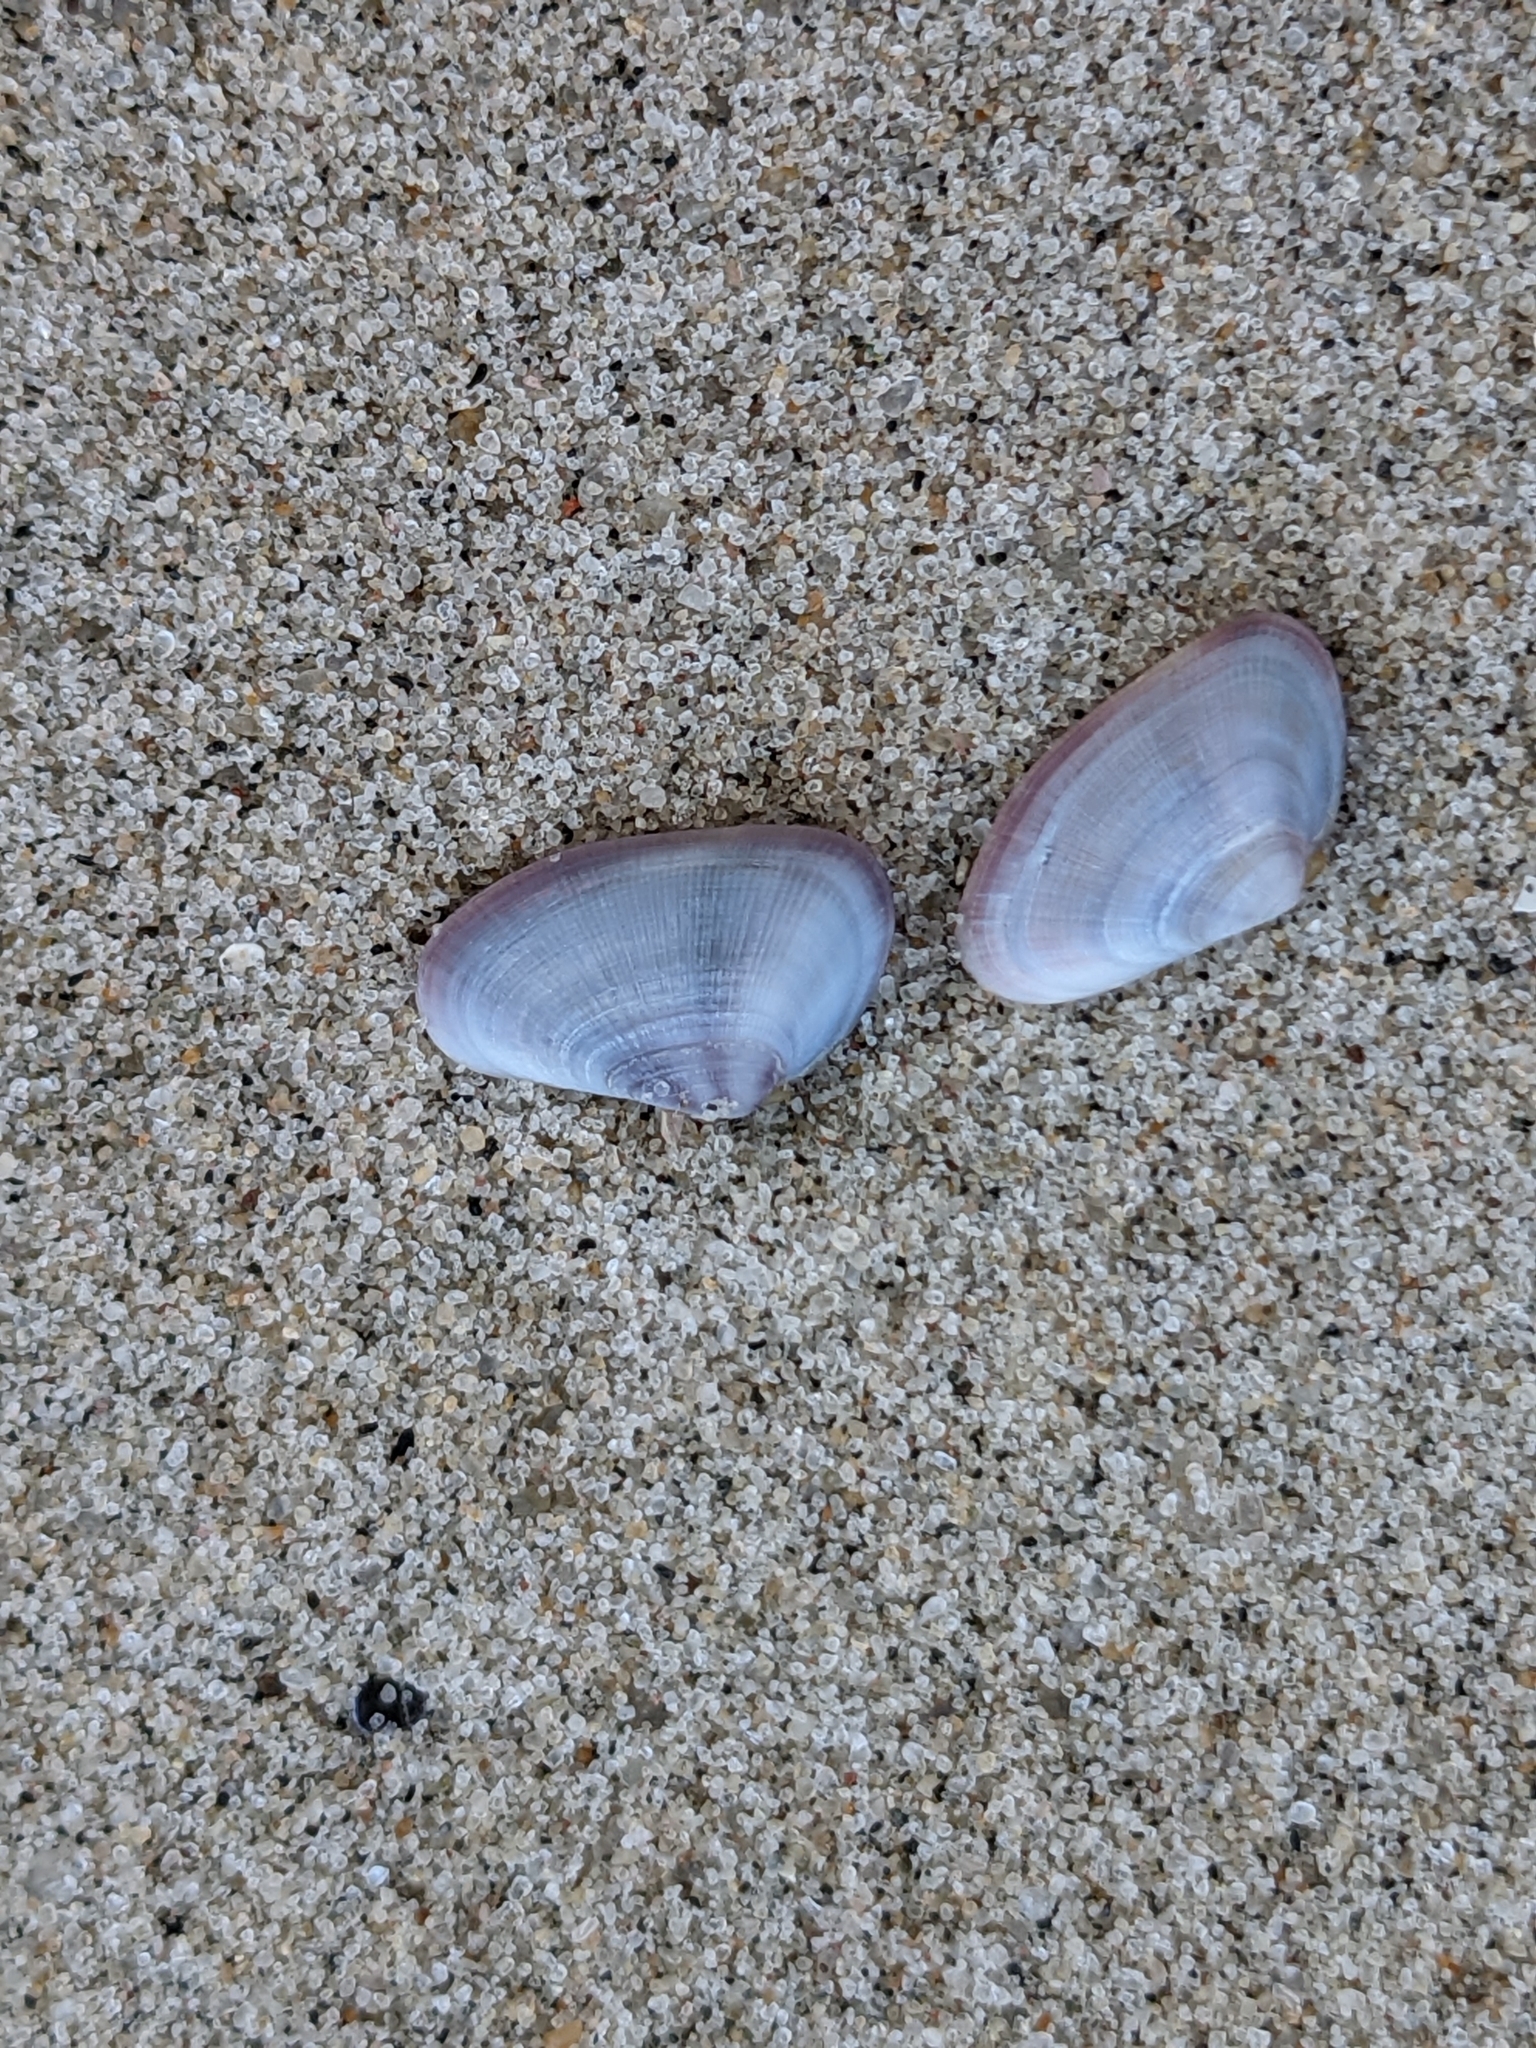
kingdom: Animalia
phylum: Mollusca
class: Bivalvia
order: Cardiida
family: Donacidae
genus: Donax
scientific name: Donax fossor
